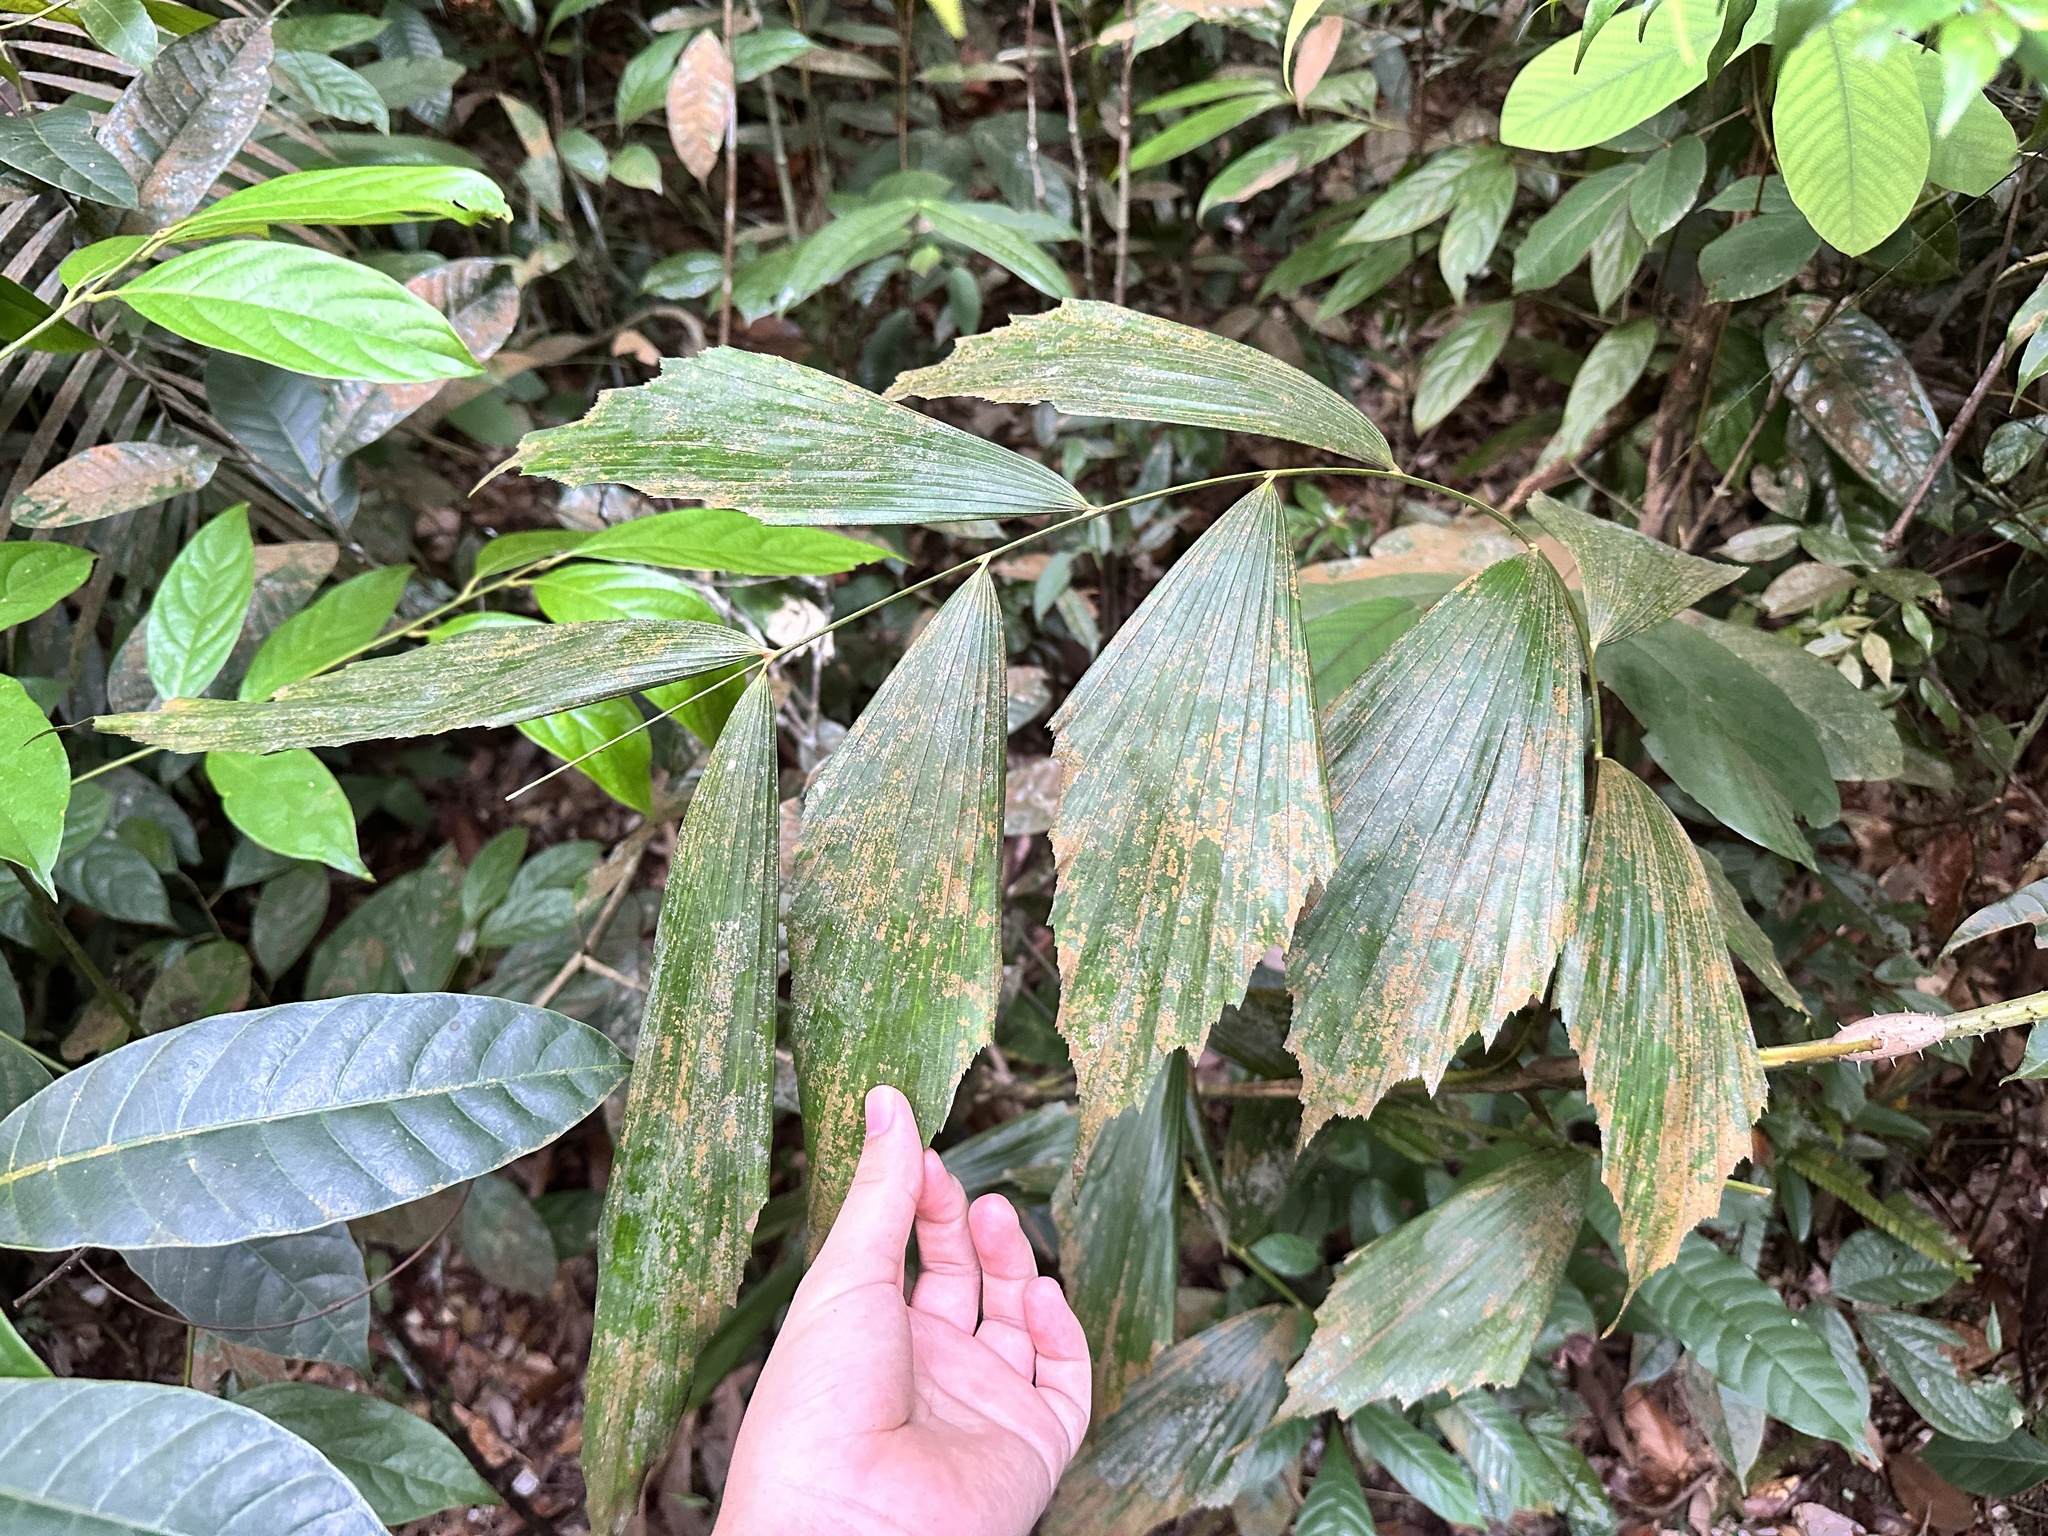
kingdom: Plantae
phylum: Tracheophyta
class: Liliopsida
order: Arecales
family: Arecaceae
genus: Korthalsia
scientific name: Korthalsia rostrata
